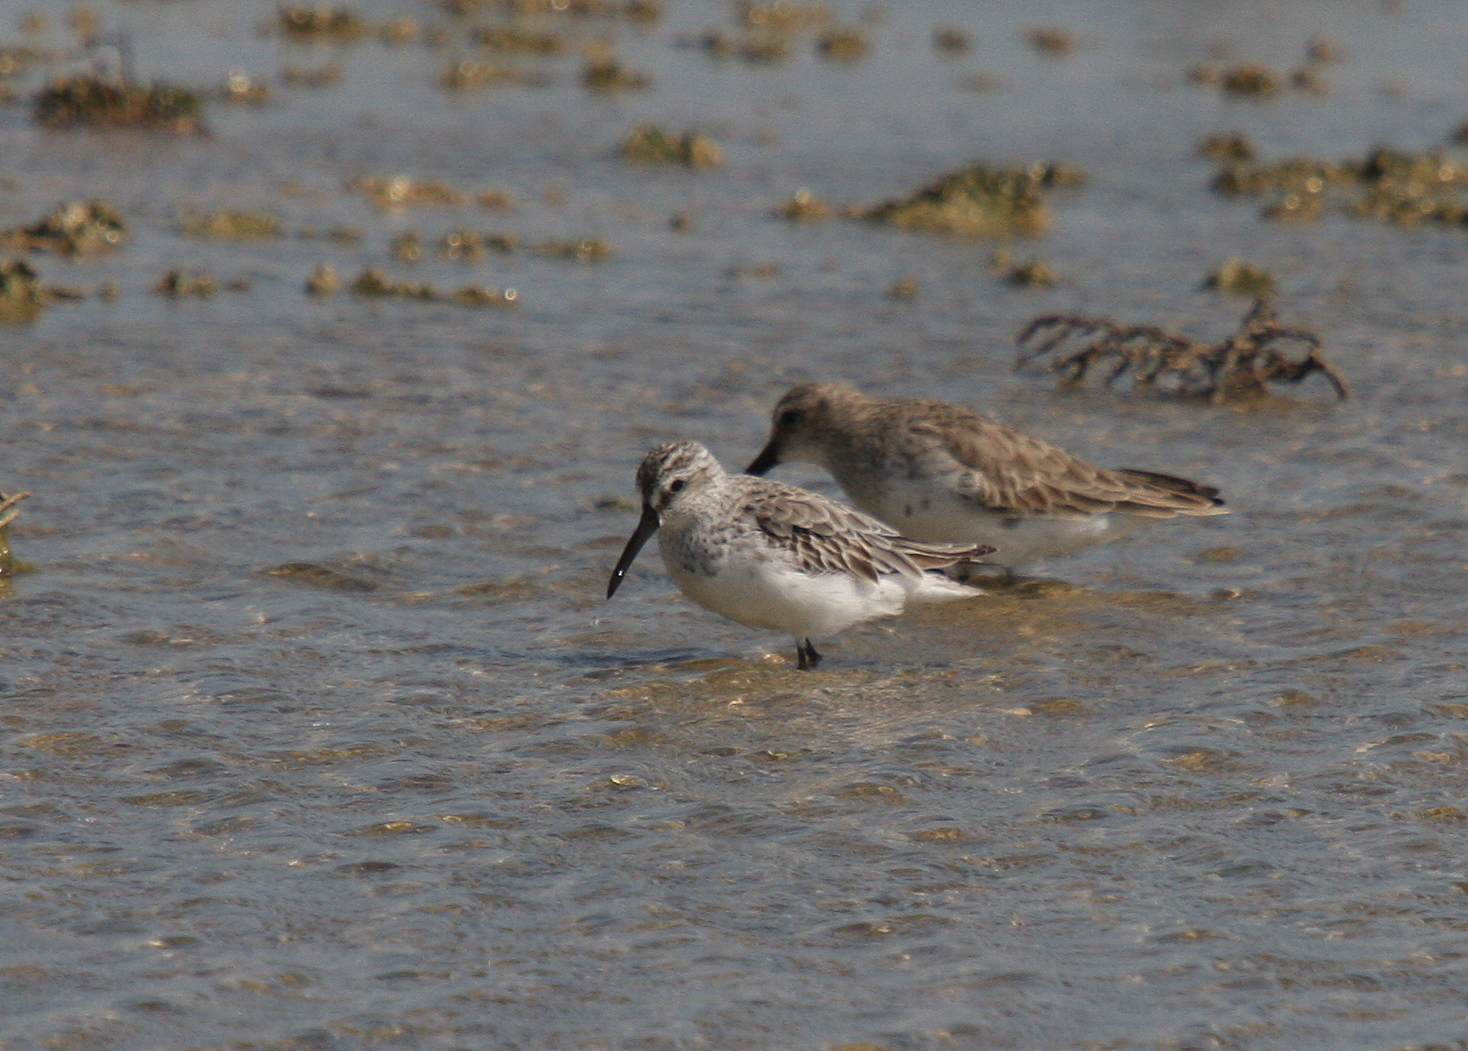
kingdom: Animalia
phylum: Chordata
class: Aves
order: Charadriiformes
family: Scolopacidae
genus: Calidris
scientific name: Calidris falcinellus
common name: Broad-billed sandpiper
